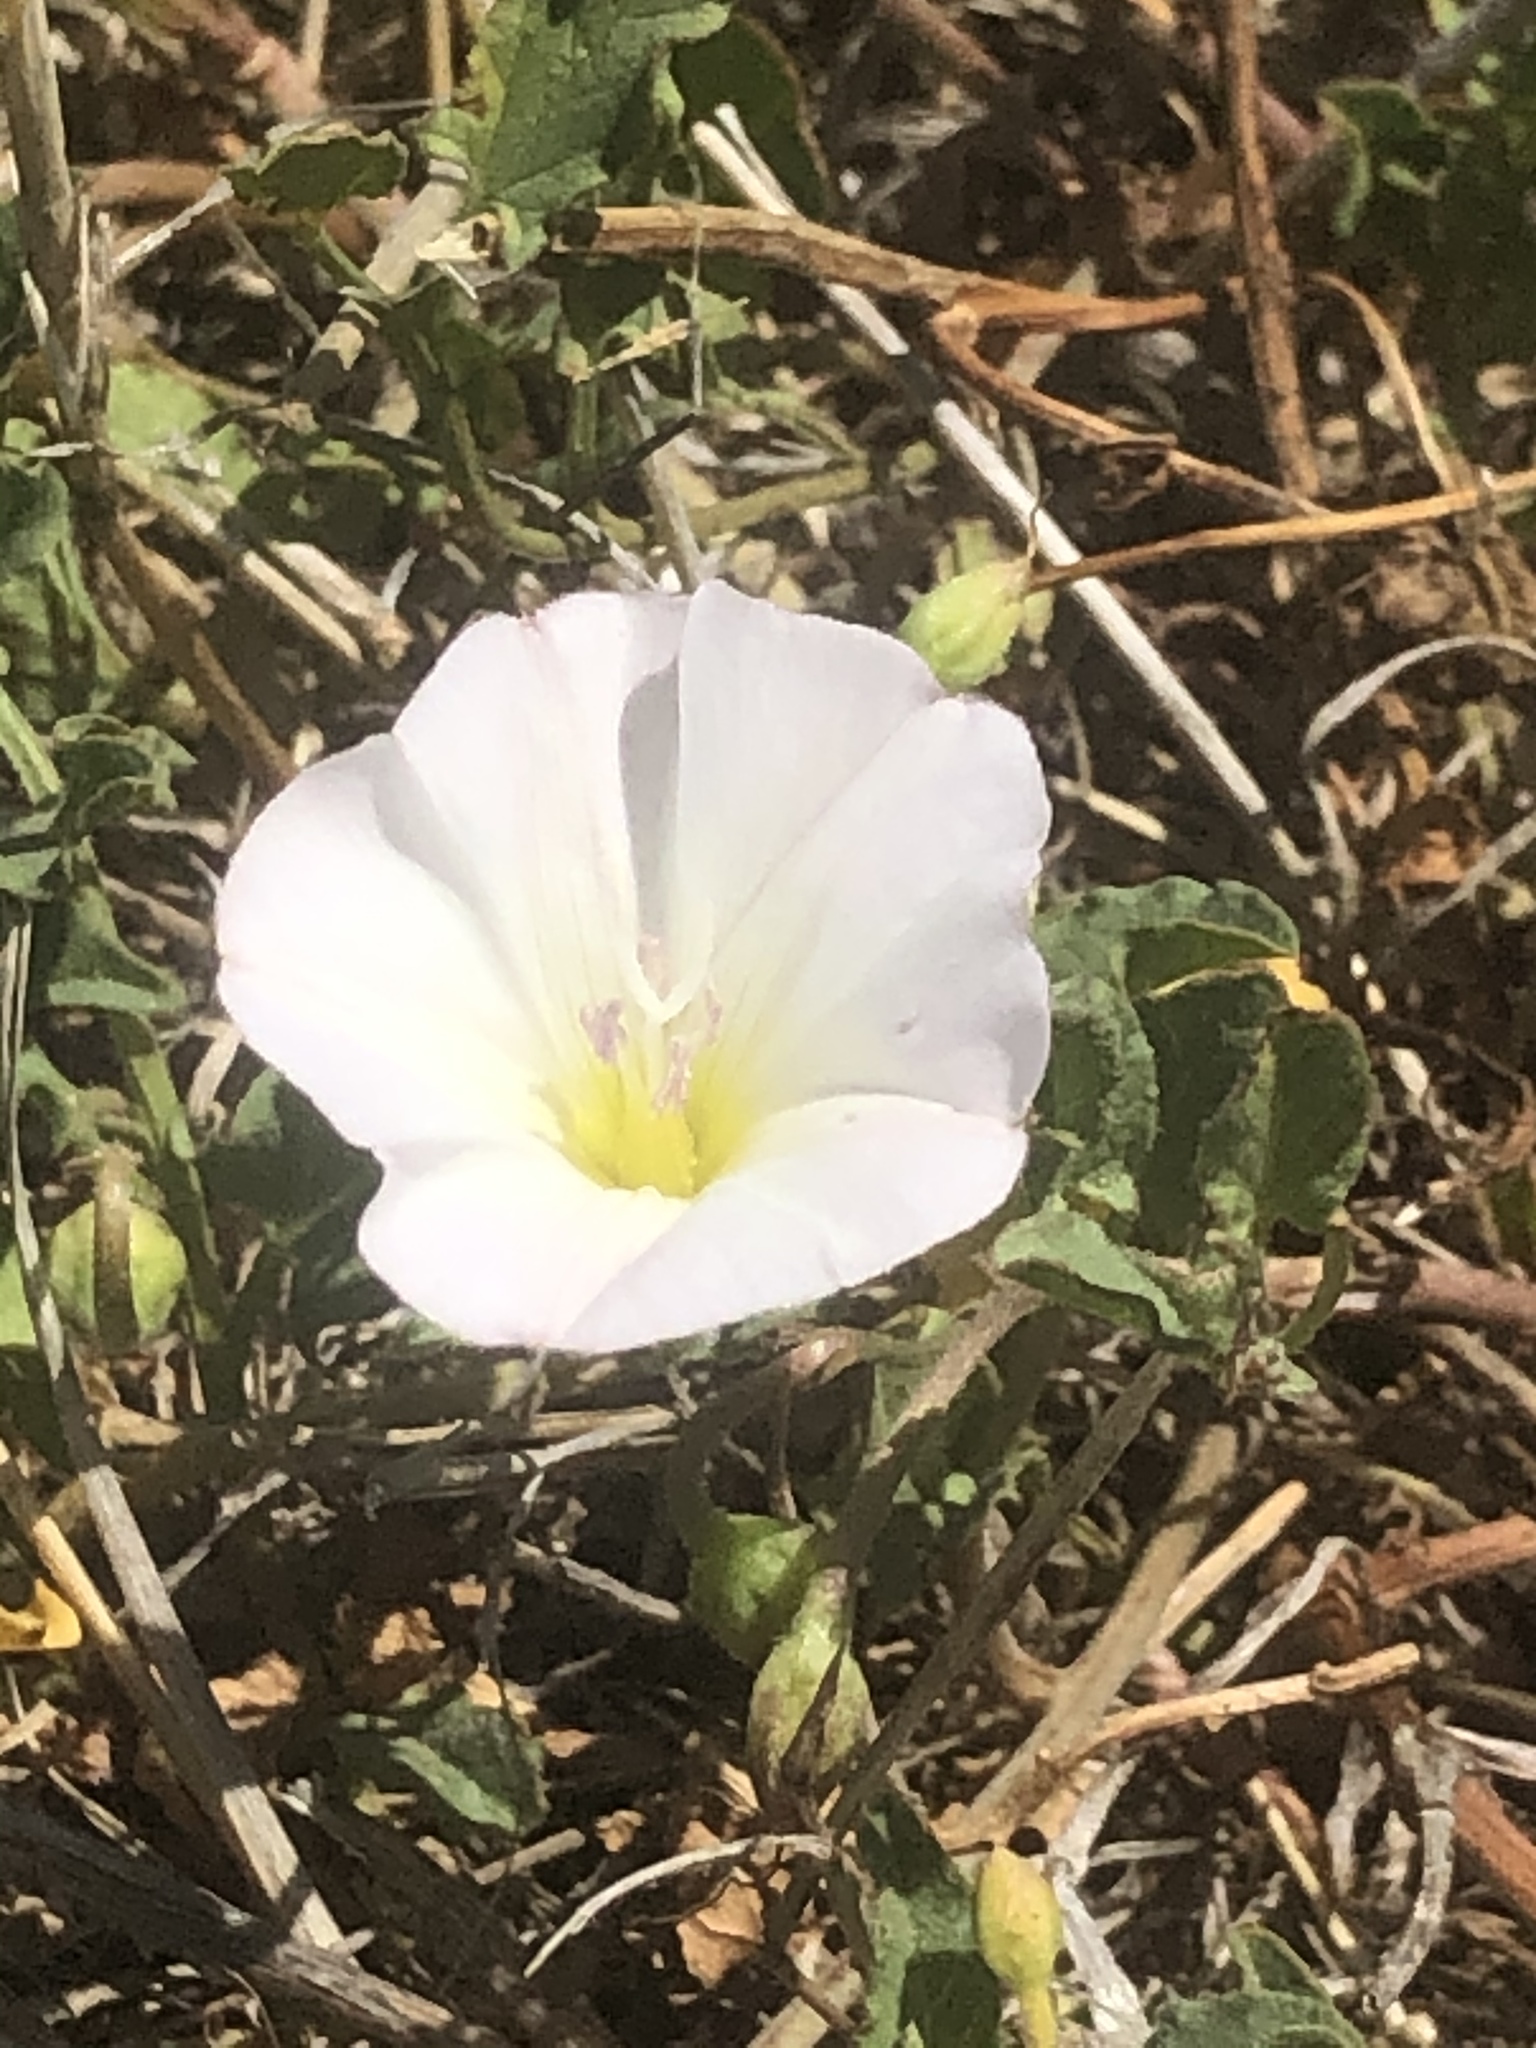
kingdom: Plantae
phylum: Tracheophyta
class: Magnoliopsida
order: Solanales
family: Convolvulaceae
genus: Convolvulus
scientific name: Convolvulus arvensis
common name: Field bindweed
